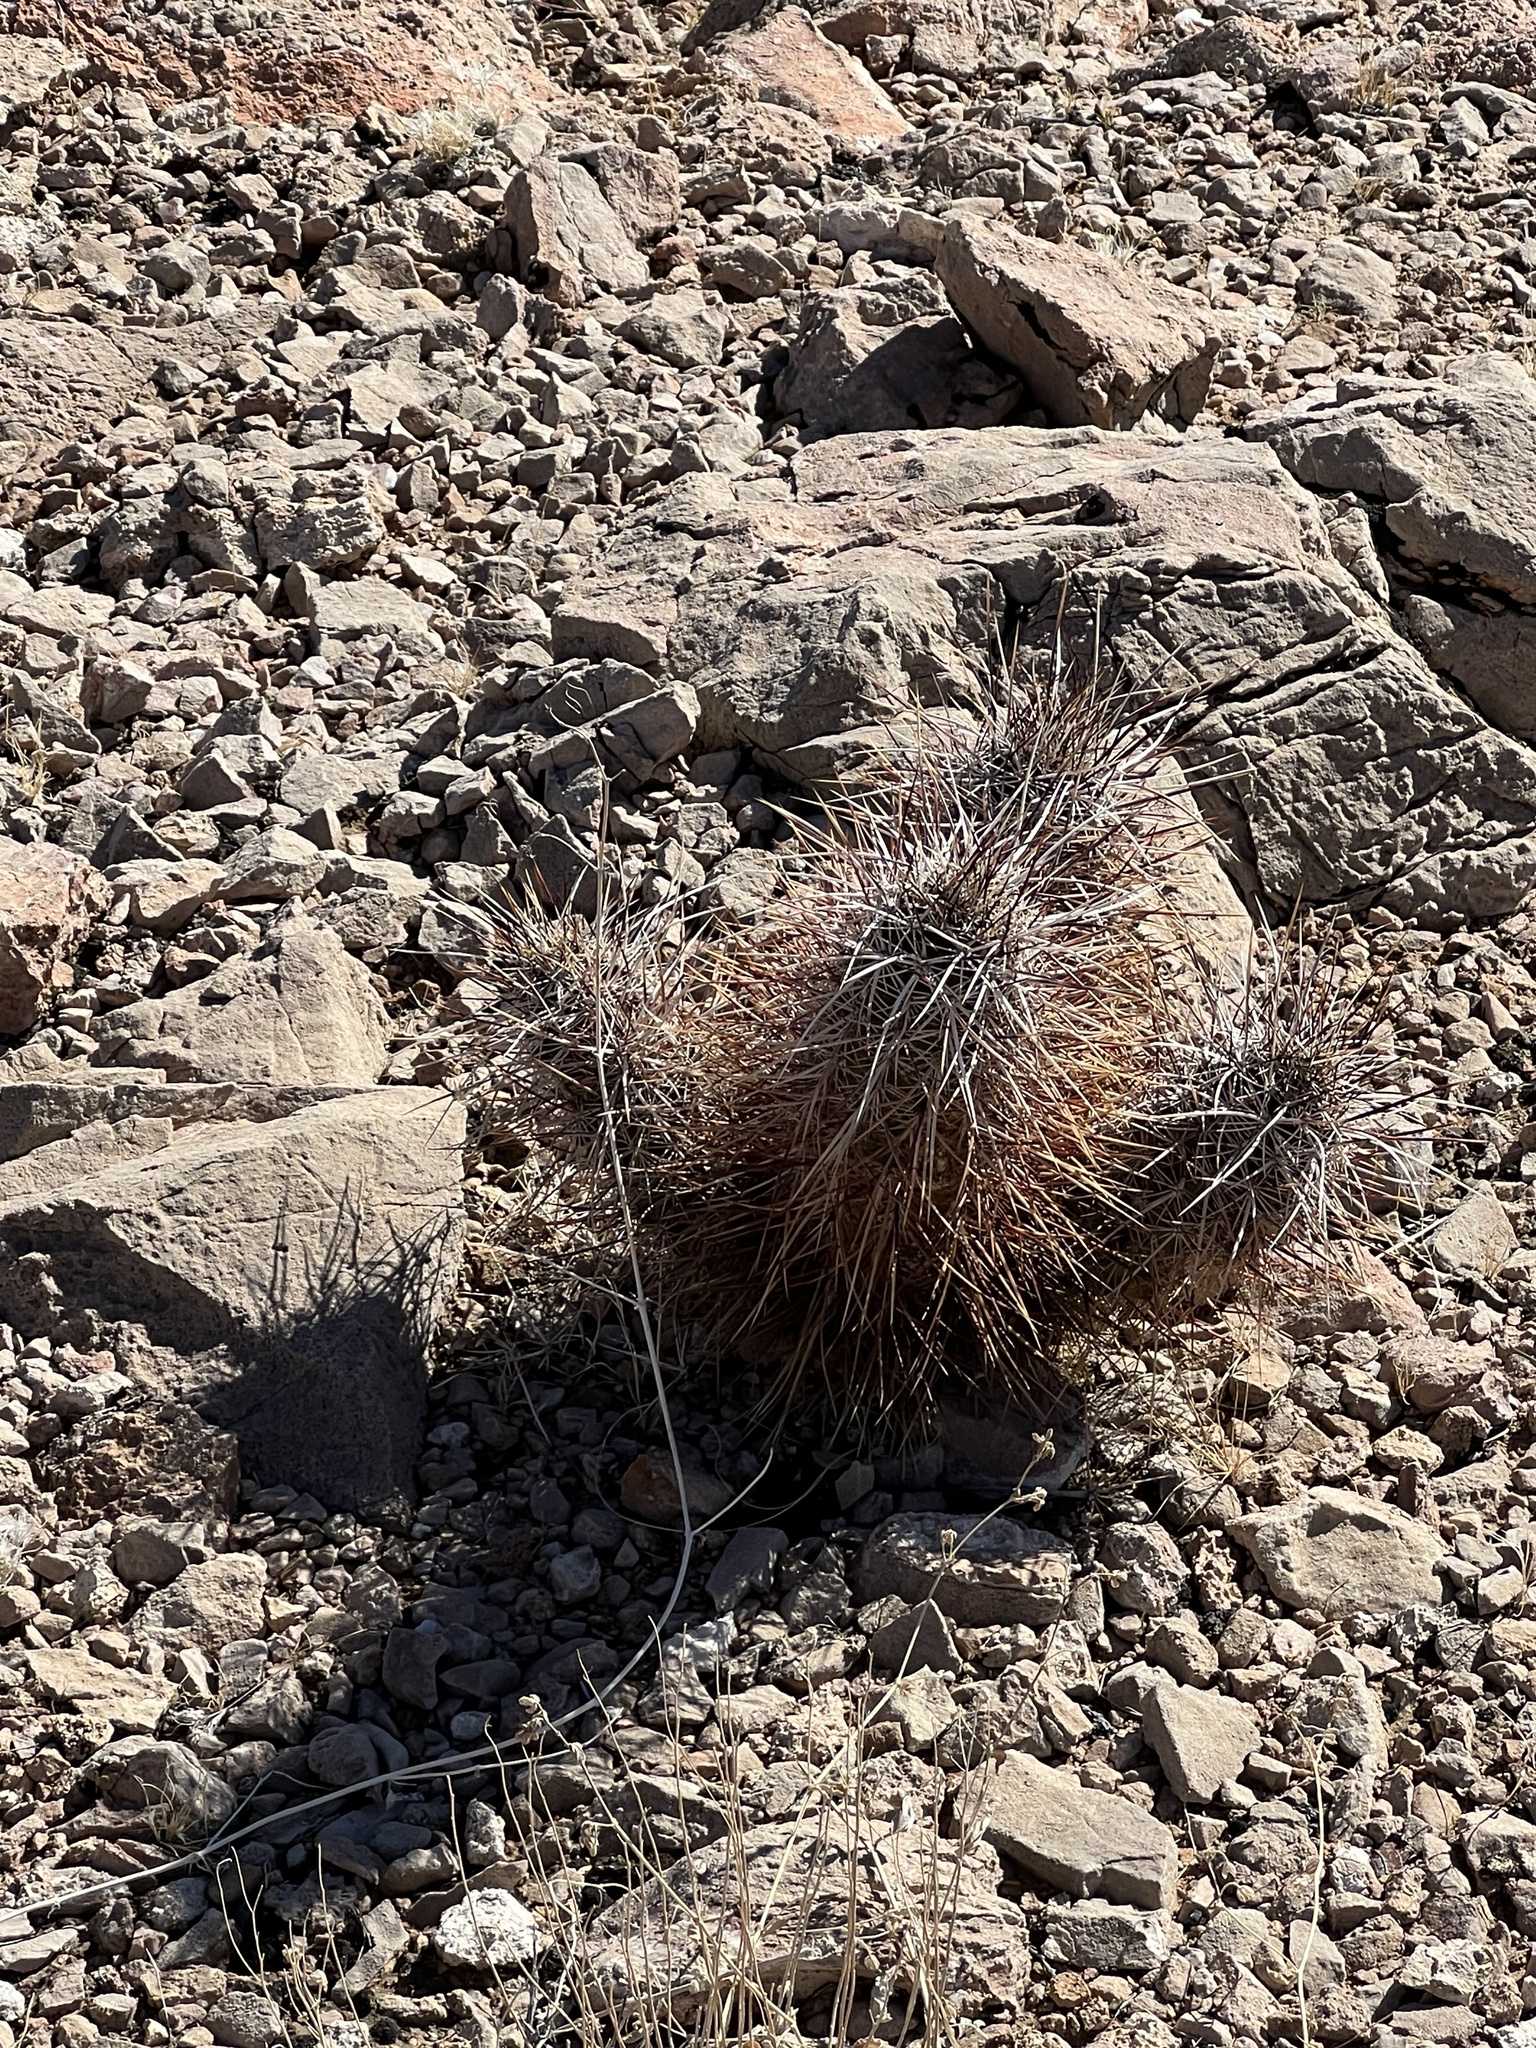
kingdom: Plantae
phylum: Tracheophyta
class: Magnoliopsida
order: Caryophyllales
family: Cactaceae
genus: Echinocereus
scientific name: Echinocereus engelmannii
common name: Engelmann's hedgehog cactus
